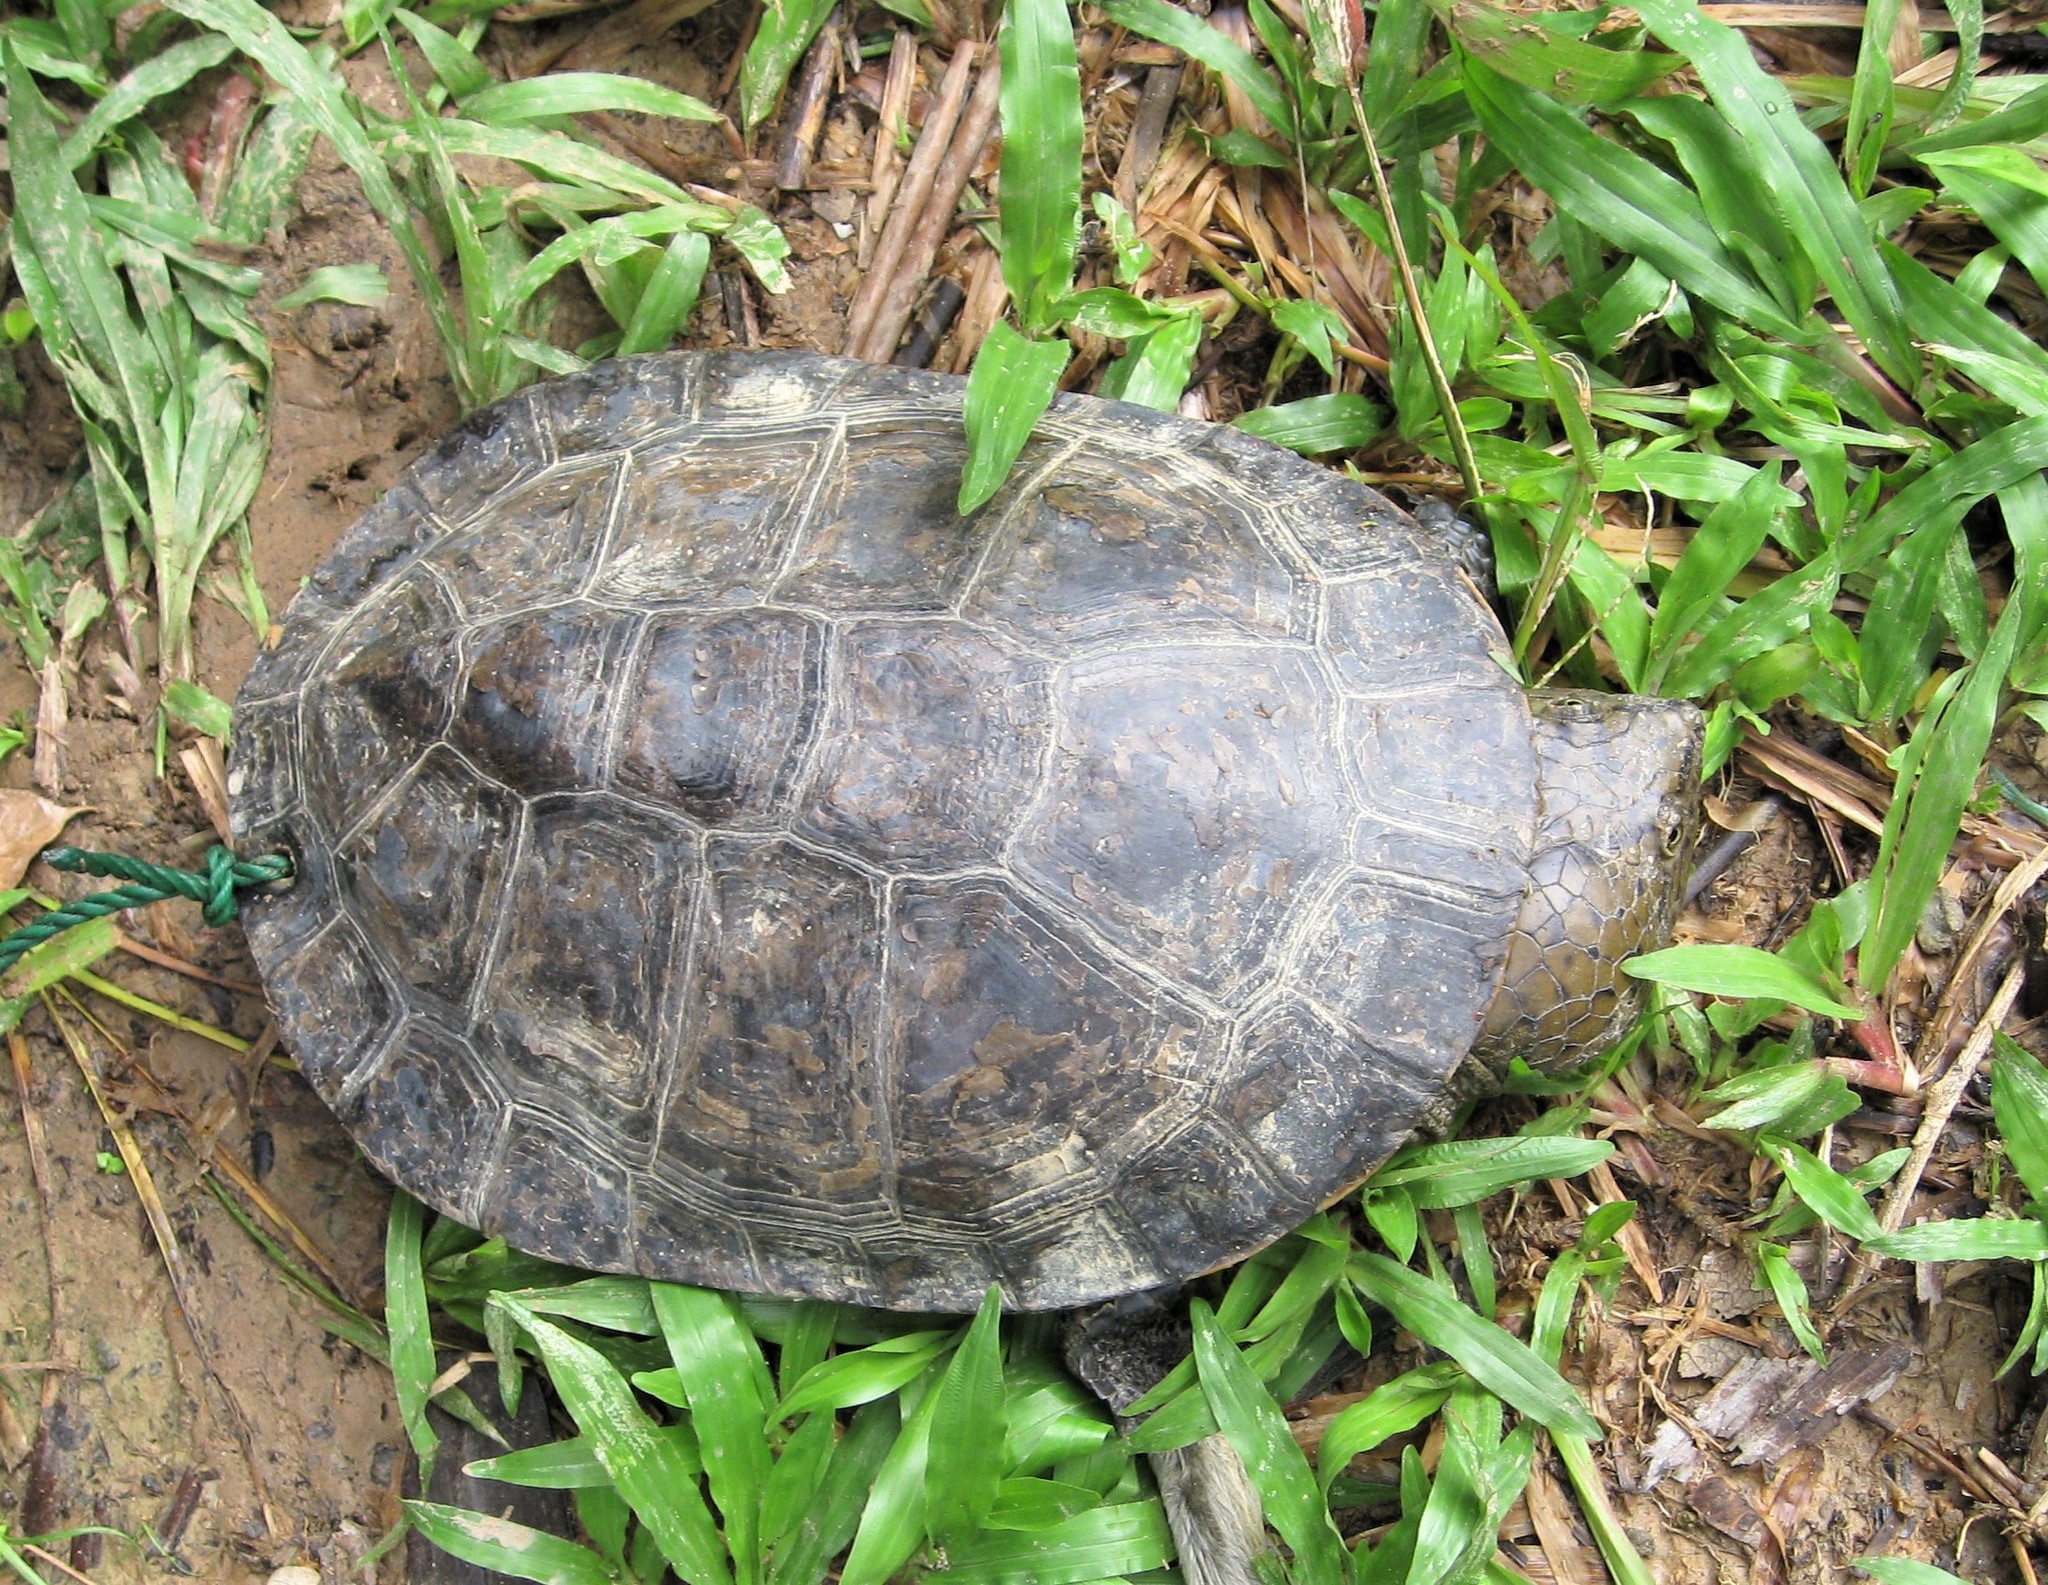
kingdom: Animalia
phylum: Chordata
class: Testudines
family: Chelidae
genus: Mesoclemmys
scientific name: Mesoclemmys raniceps
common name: Amazon toad-headed turtle
